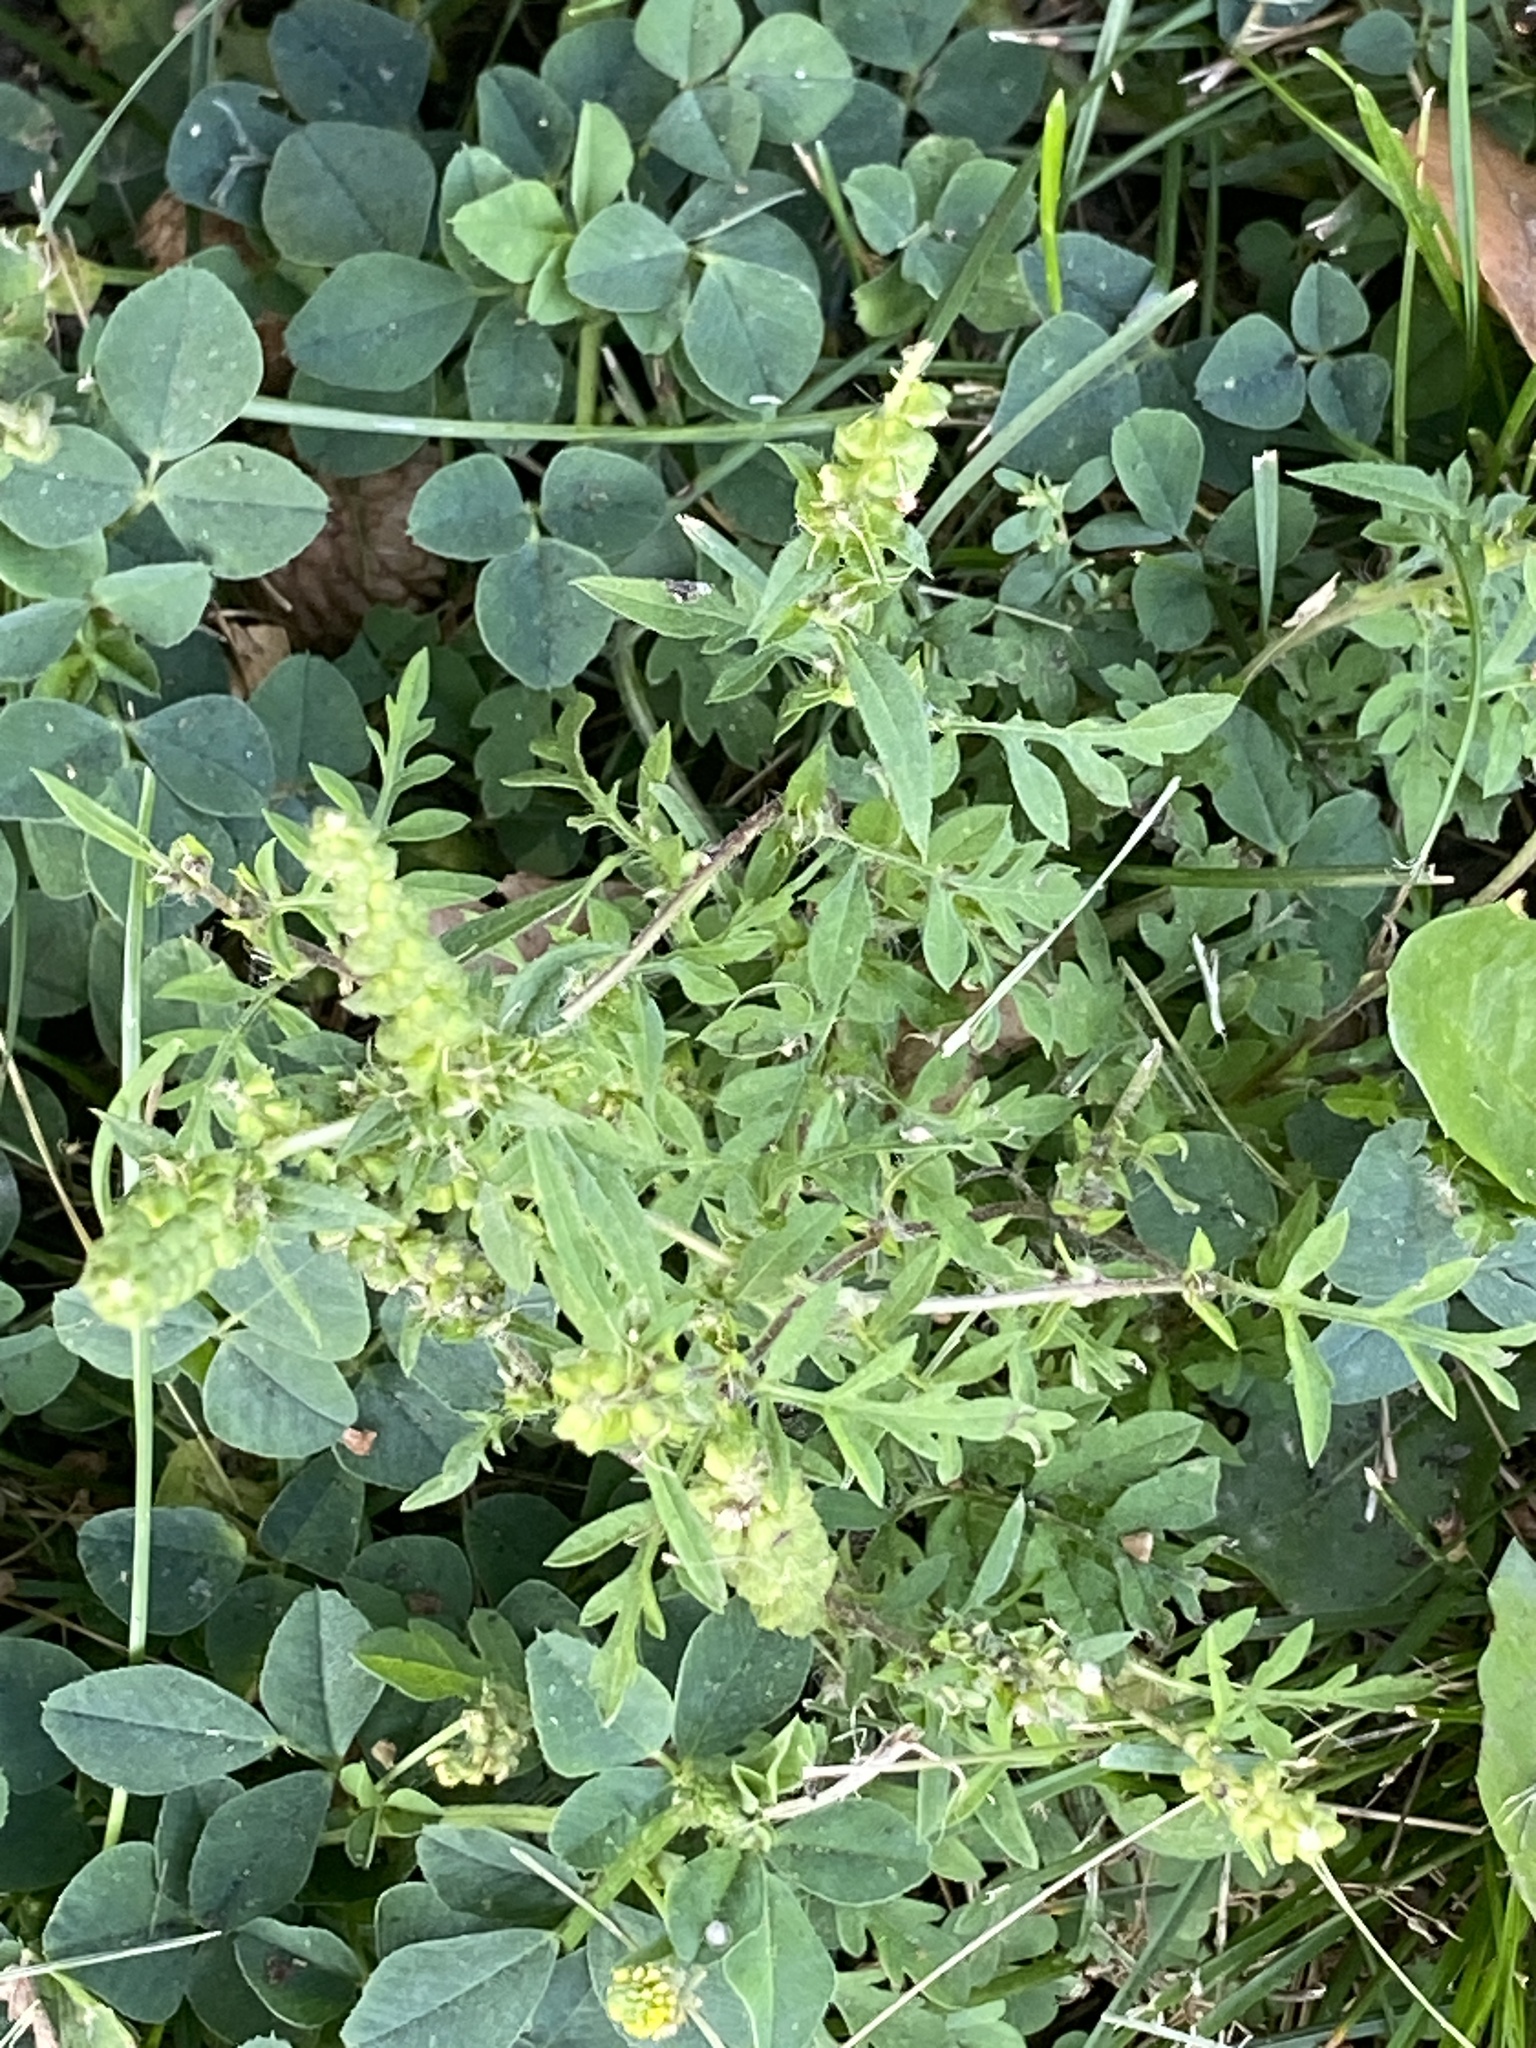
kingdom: Plantae
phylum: Tracheophyta
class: Magnoliopsida
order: Asterales
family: Asteraceae
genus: Ambrosia
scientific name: Ambrosia artemisiifolia
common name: Annual ragweed
